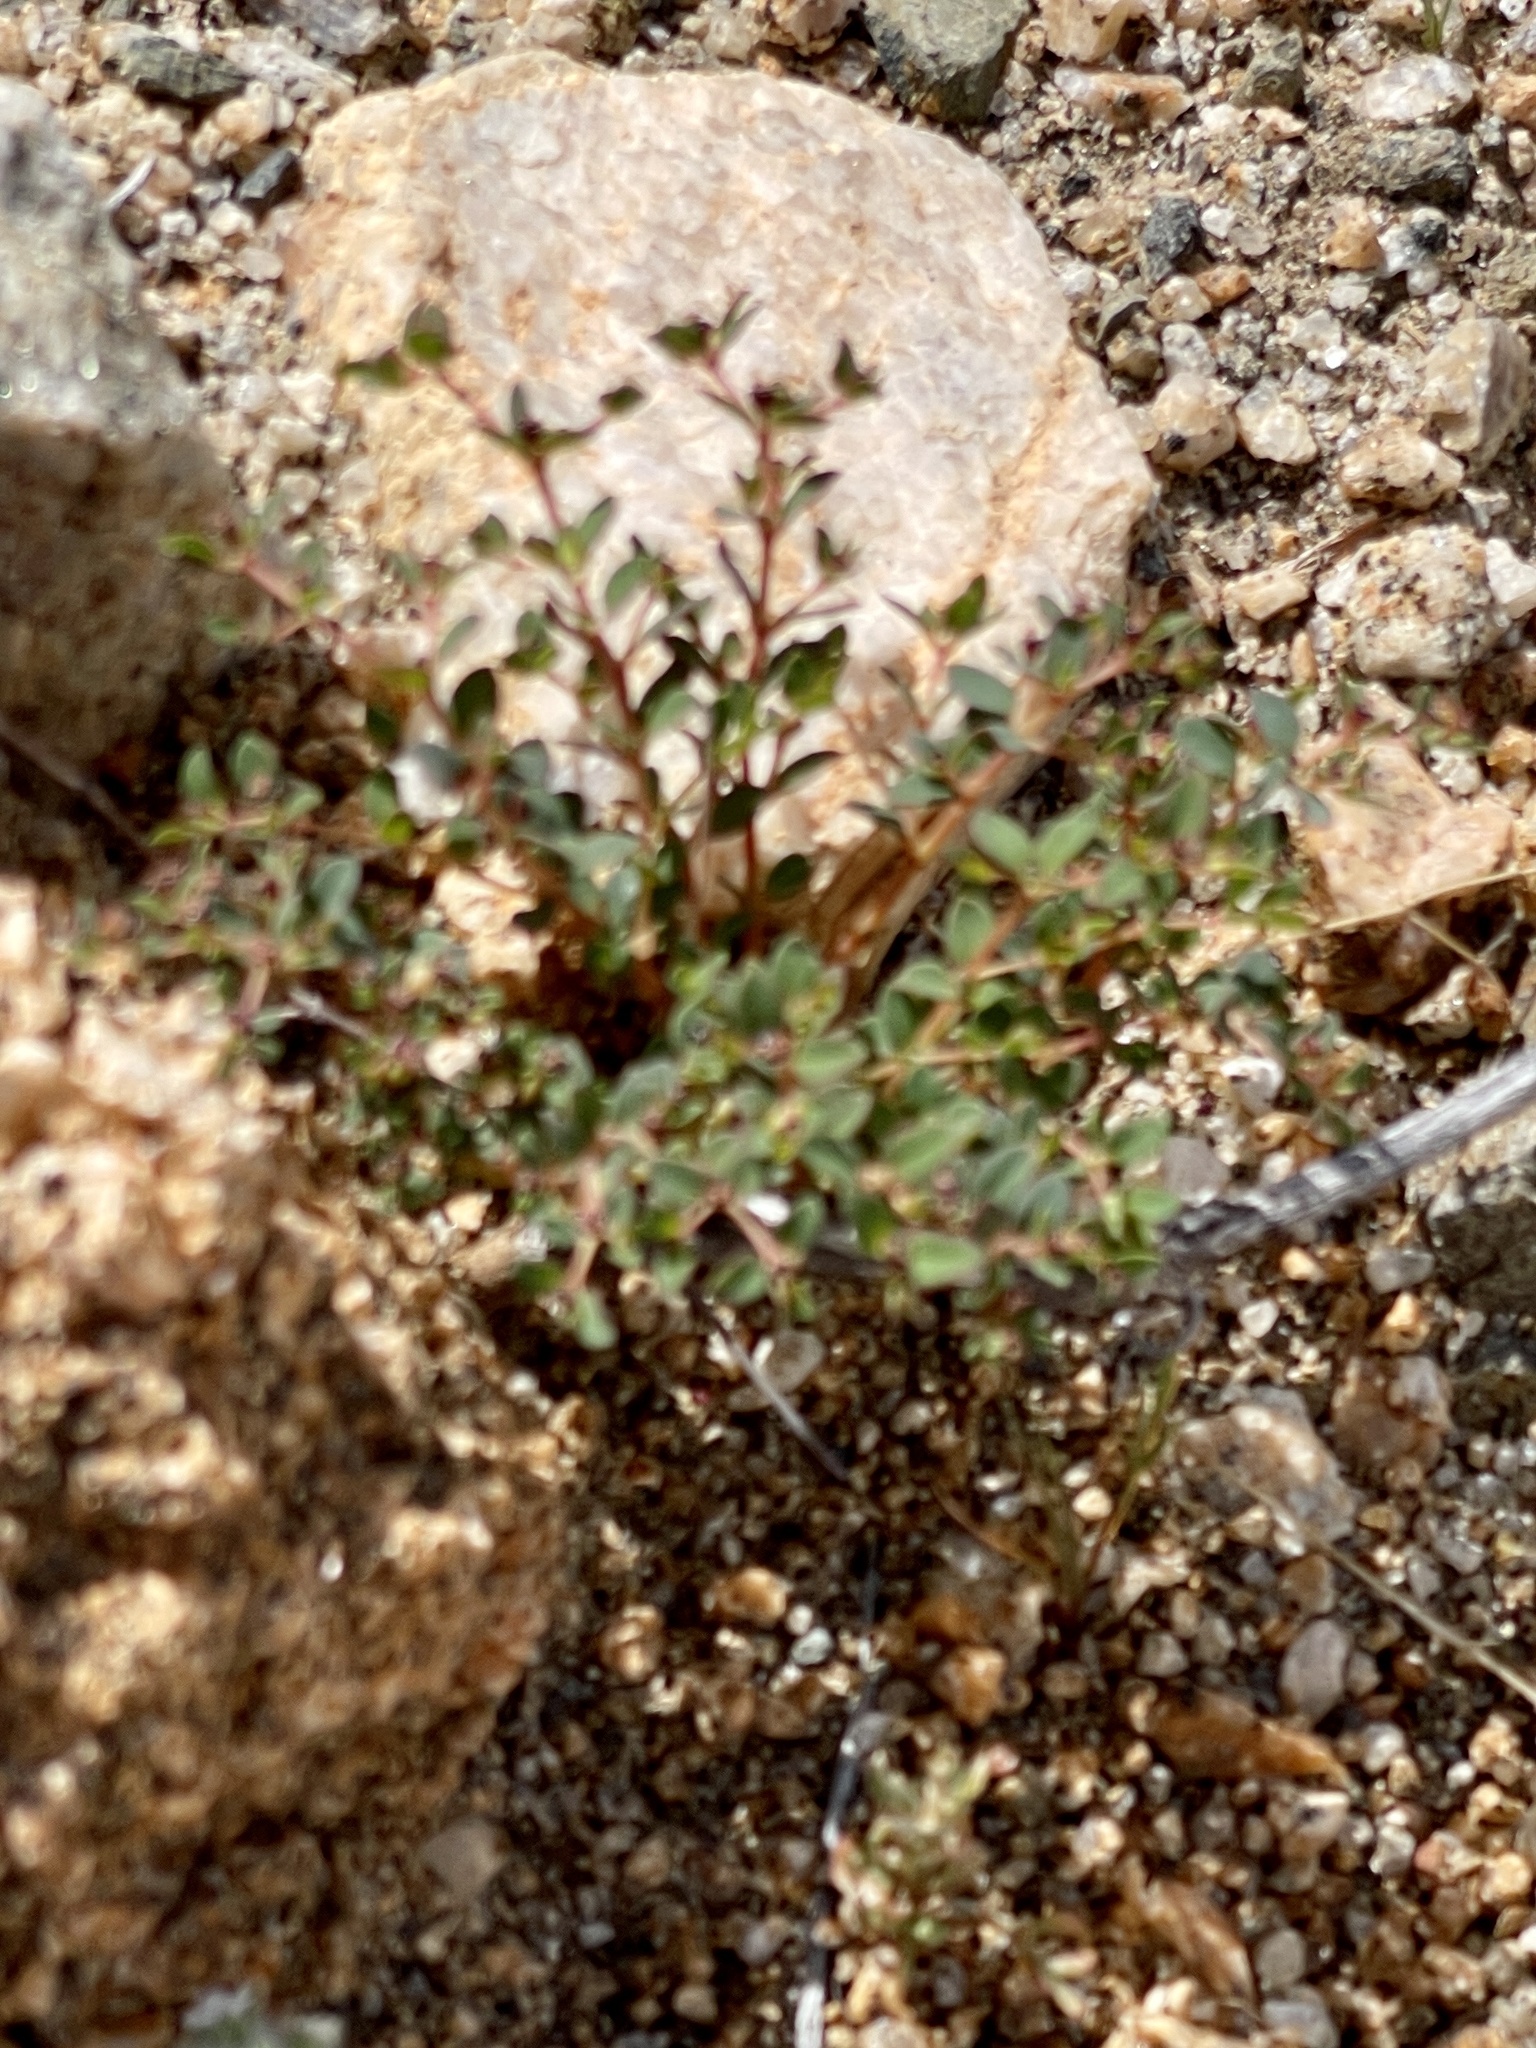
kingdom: Plantae
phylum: Tracheophyta
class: Magnoliopsida
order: Malpighiales
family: Euphorbiaceae
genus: Euphorbia
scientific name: Euphorbia polycarpa
